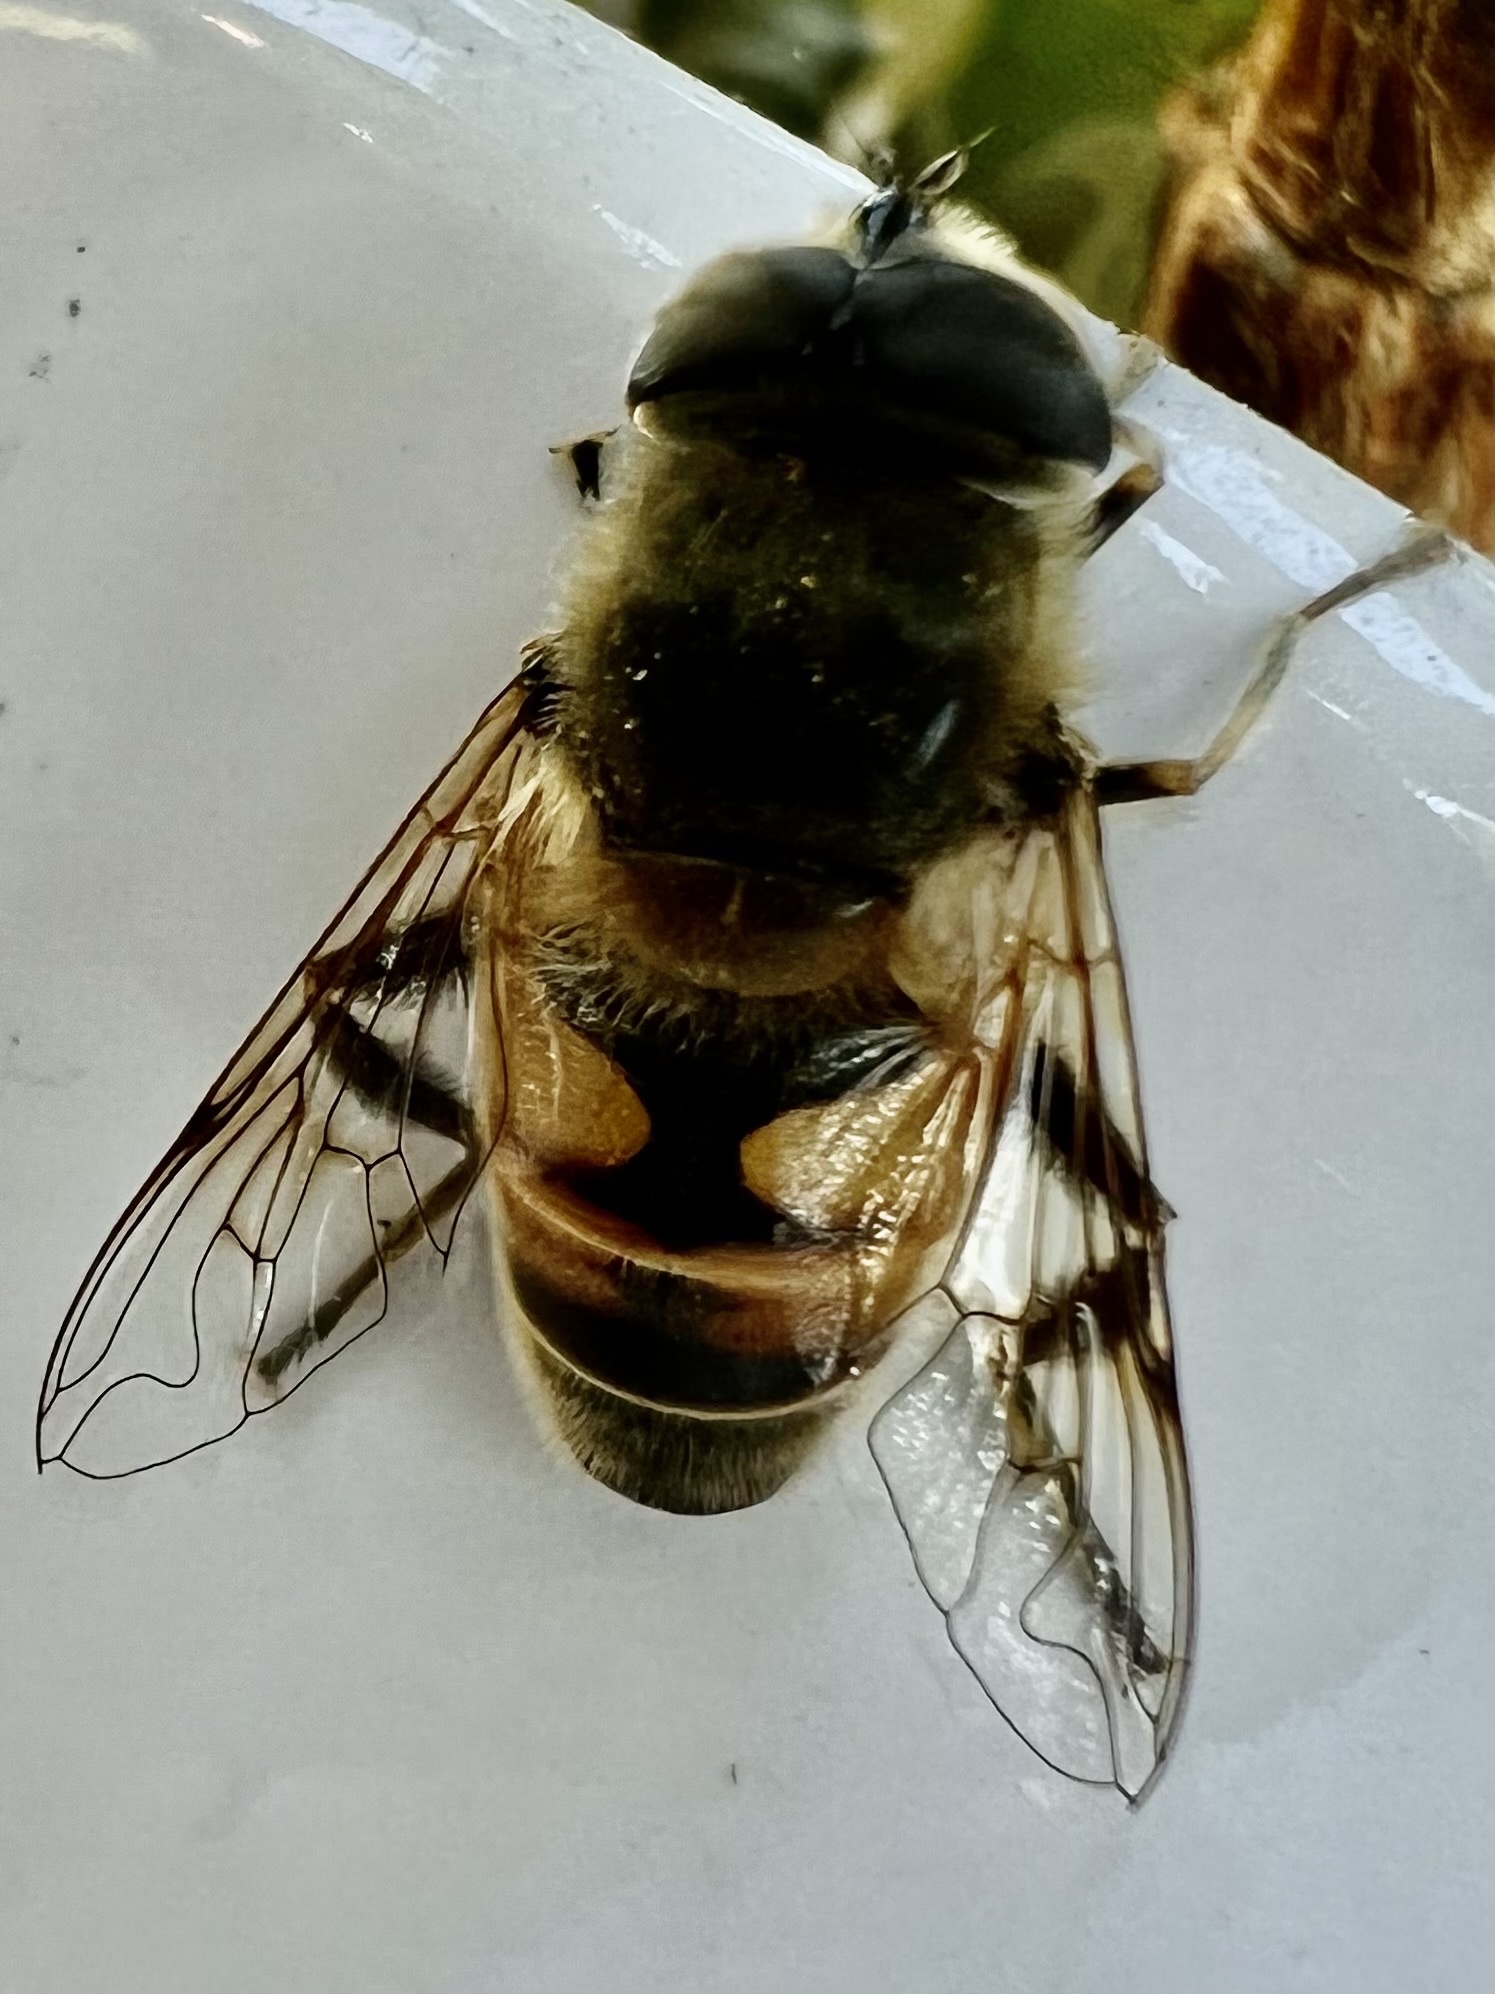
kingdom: Animalia
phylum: Arthropoda
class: Insecta
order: Diptera
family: Syrphidae
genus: Eristalis
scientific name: Eristalis tenax
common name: Drone fly
